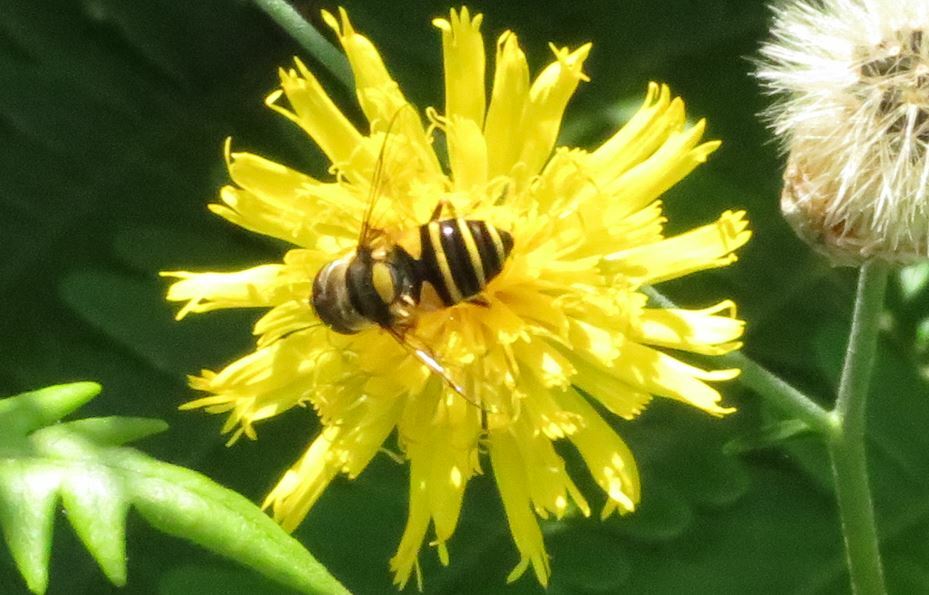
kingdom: Animalia
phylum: Arthropoda
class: Insecta
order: Diptera
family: Syrphidae
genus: Eristalis
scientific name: Eristalis transversa
